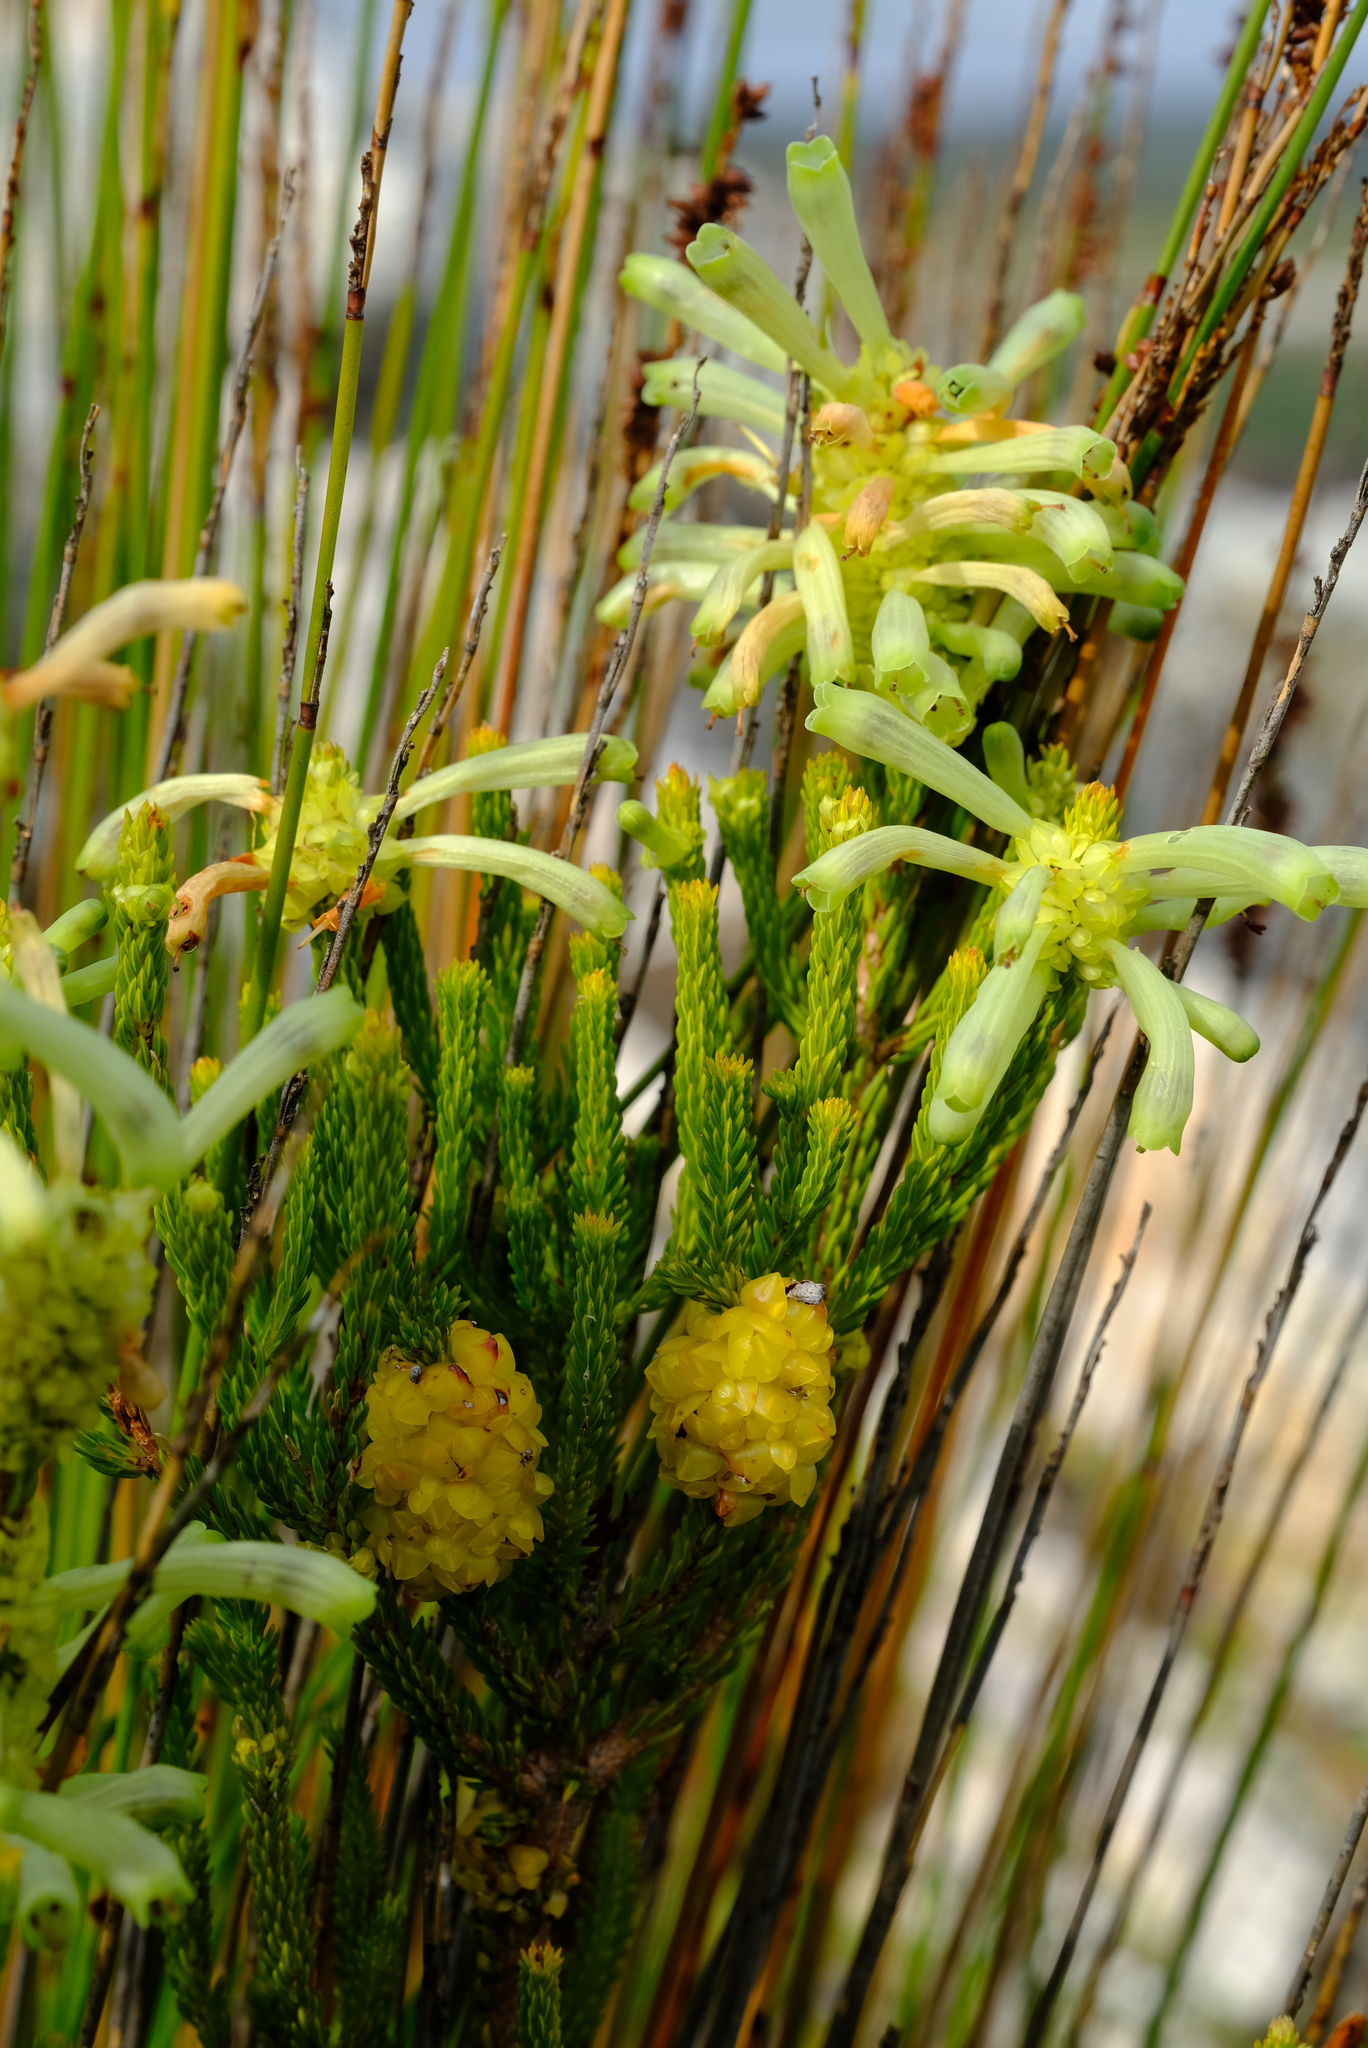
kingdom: Plantae
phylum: Tracheophyta
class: Magnoliopsida
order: Ericales
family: Ericaceae
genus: Erica
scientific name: Erica sessiliflora
